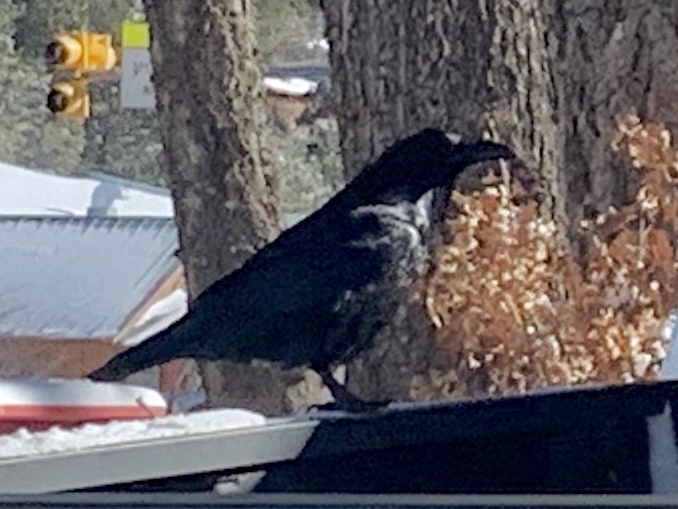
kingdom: Animalia
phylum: Chordata
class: Aves
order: Passeriformes
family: Corvidae
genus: Corvus
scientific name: Corvus corax
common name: Common raven
